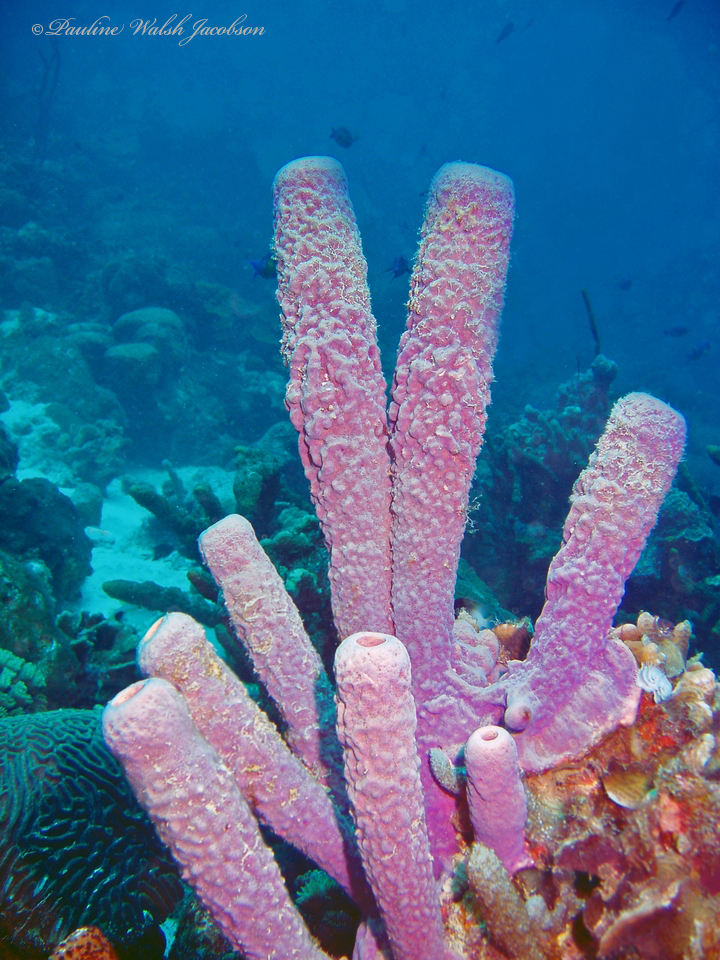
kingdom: Animalia
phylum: Porifera
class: Demospongiae
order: Verongiida
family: Aplysinidae
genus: Aplysina
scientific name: Aplysina archeri
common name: Stove-pipe sponge
